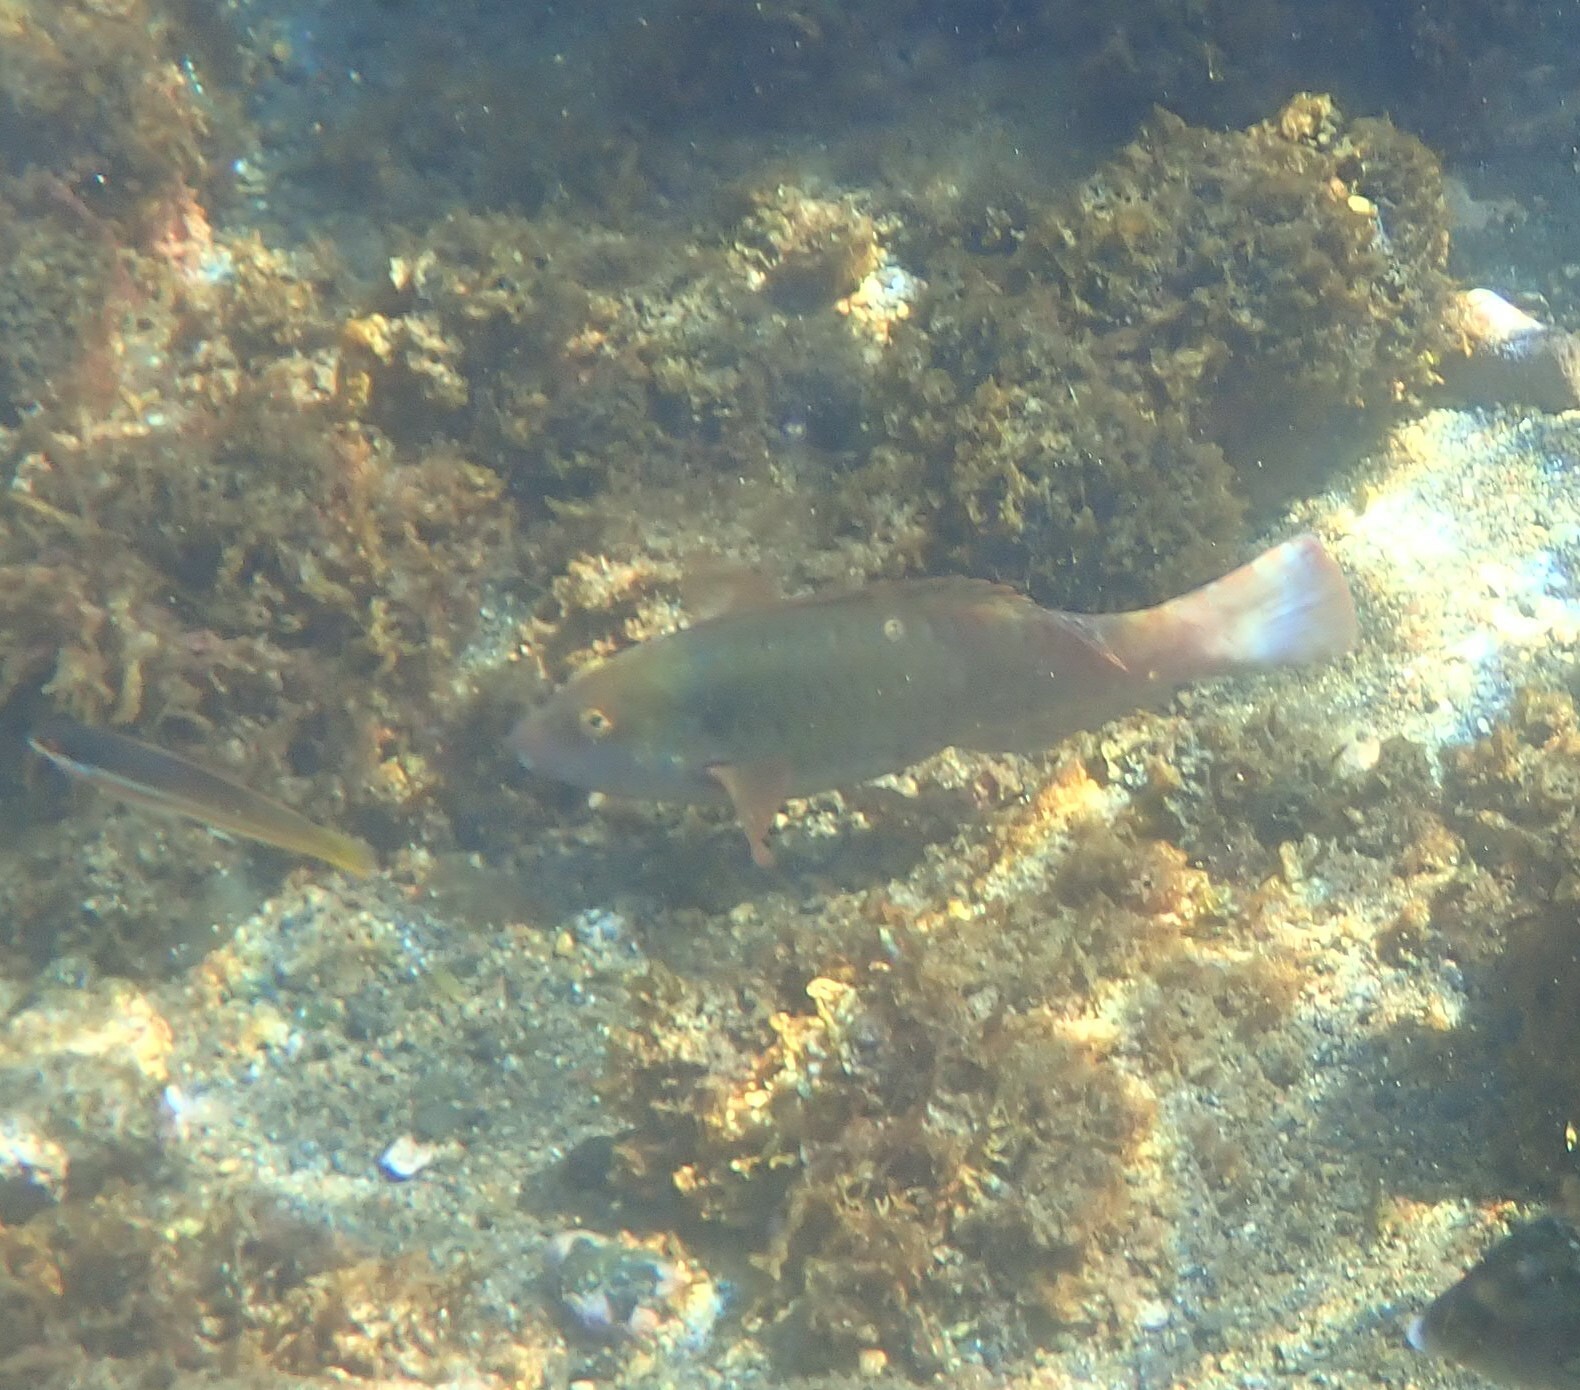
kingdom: Animalia
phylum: Chordata
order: Perciformes
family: Scaridae
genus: Sparisoma
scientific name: Sparisoma cretense
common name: Parrotfish
